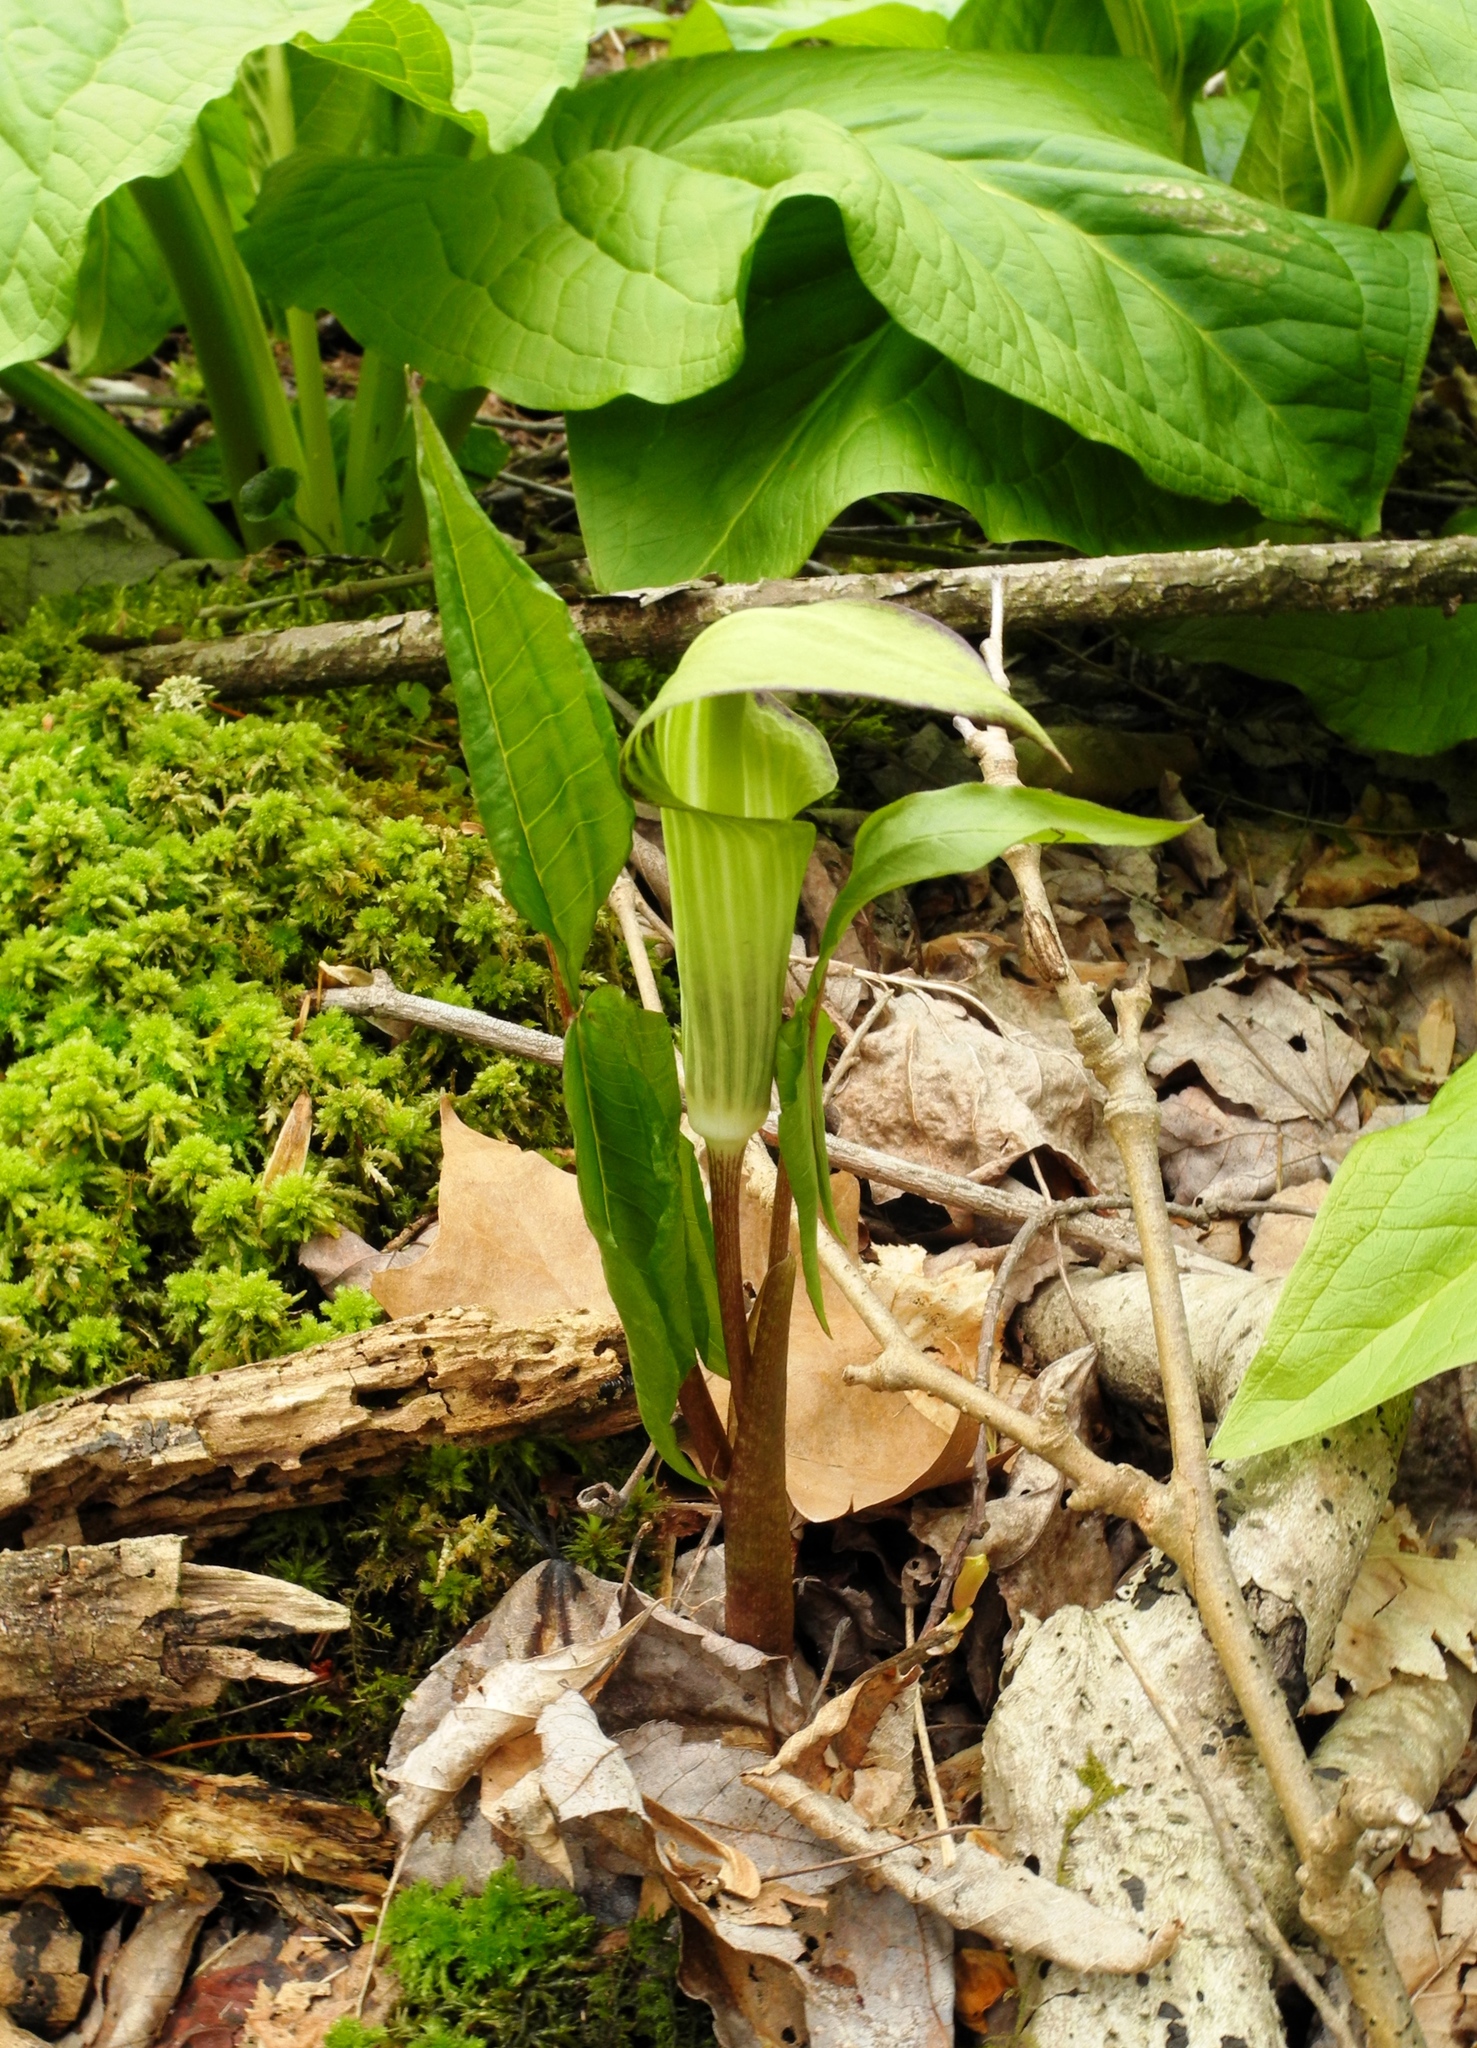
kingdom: Plantae
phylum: Tracheophyta
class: Liliopsida
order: Alismatales
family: Araceae
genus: Arisaema
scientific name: Arisaema triphyllum
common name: Jack-in-the-pulpit
